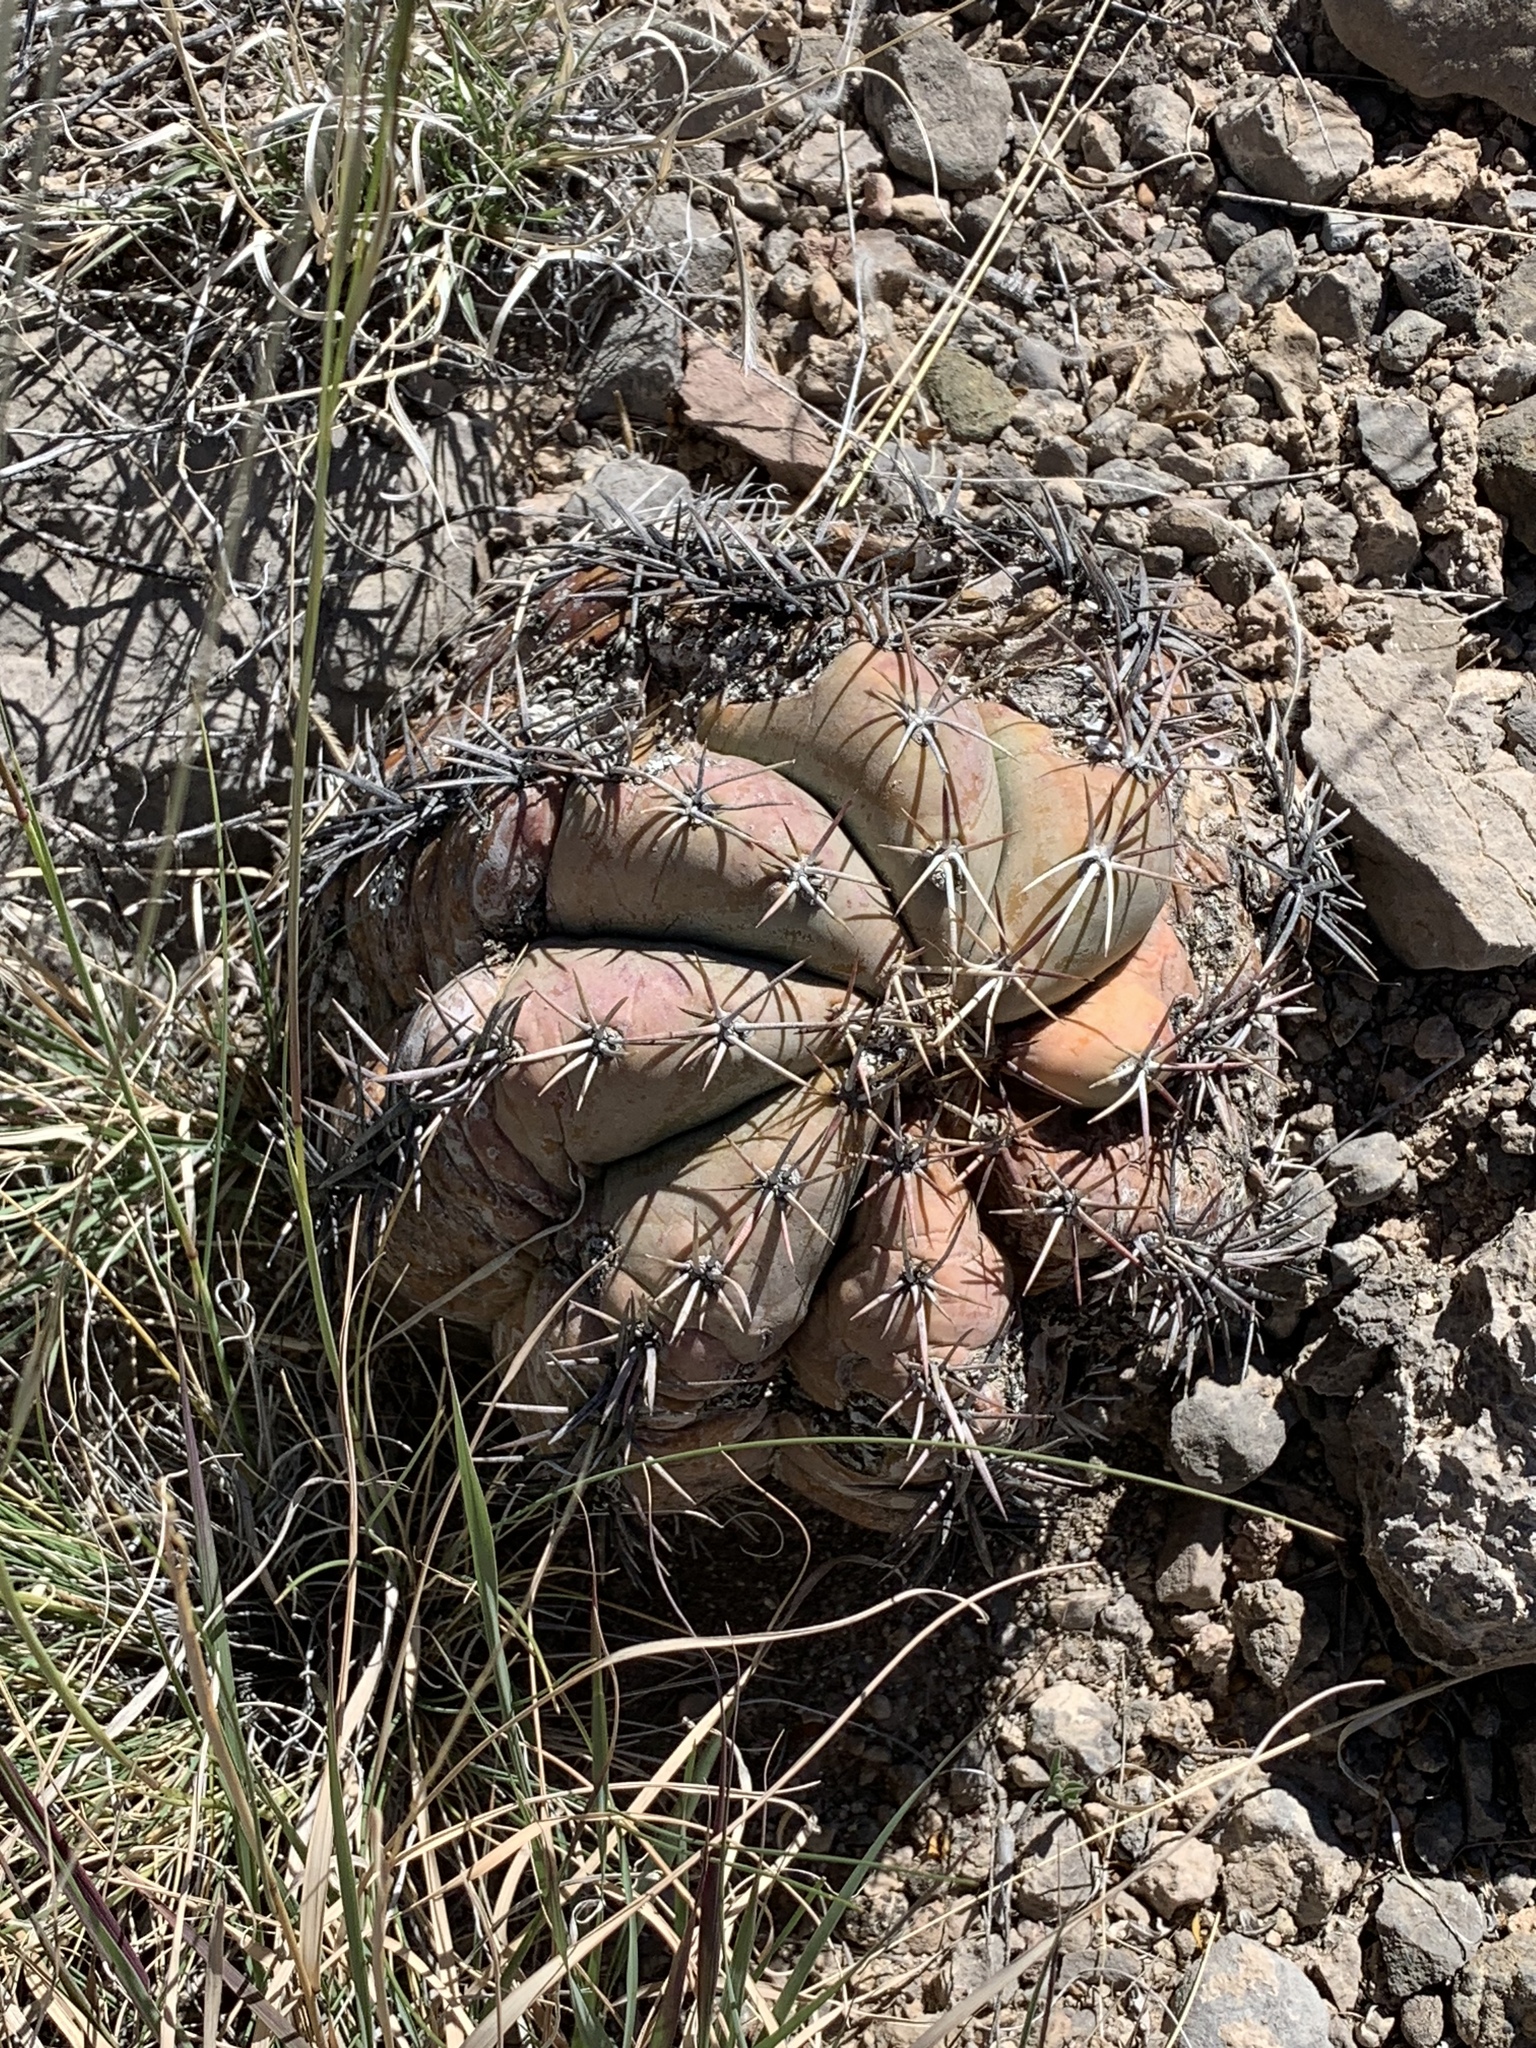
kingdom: Plantae
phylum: Tracheophyta
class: Magnoliopsida
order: Caryophyllales
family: Cactaceae
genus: Echinocactus
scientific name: Echinocactus horizonthalonius
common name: Devilshead
